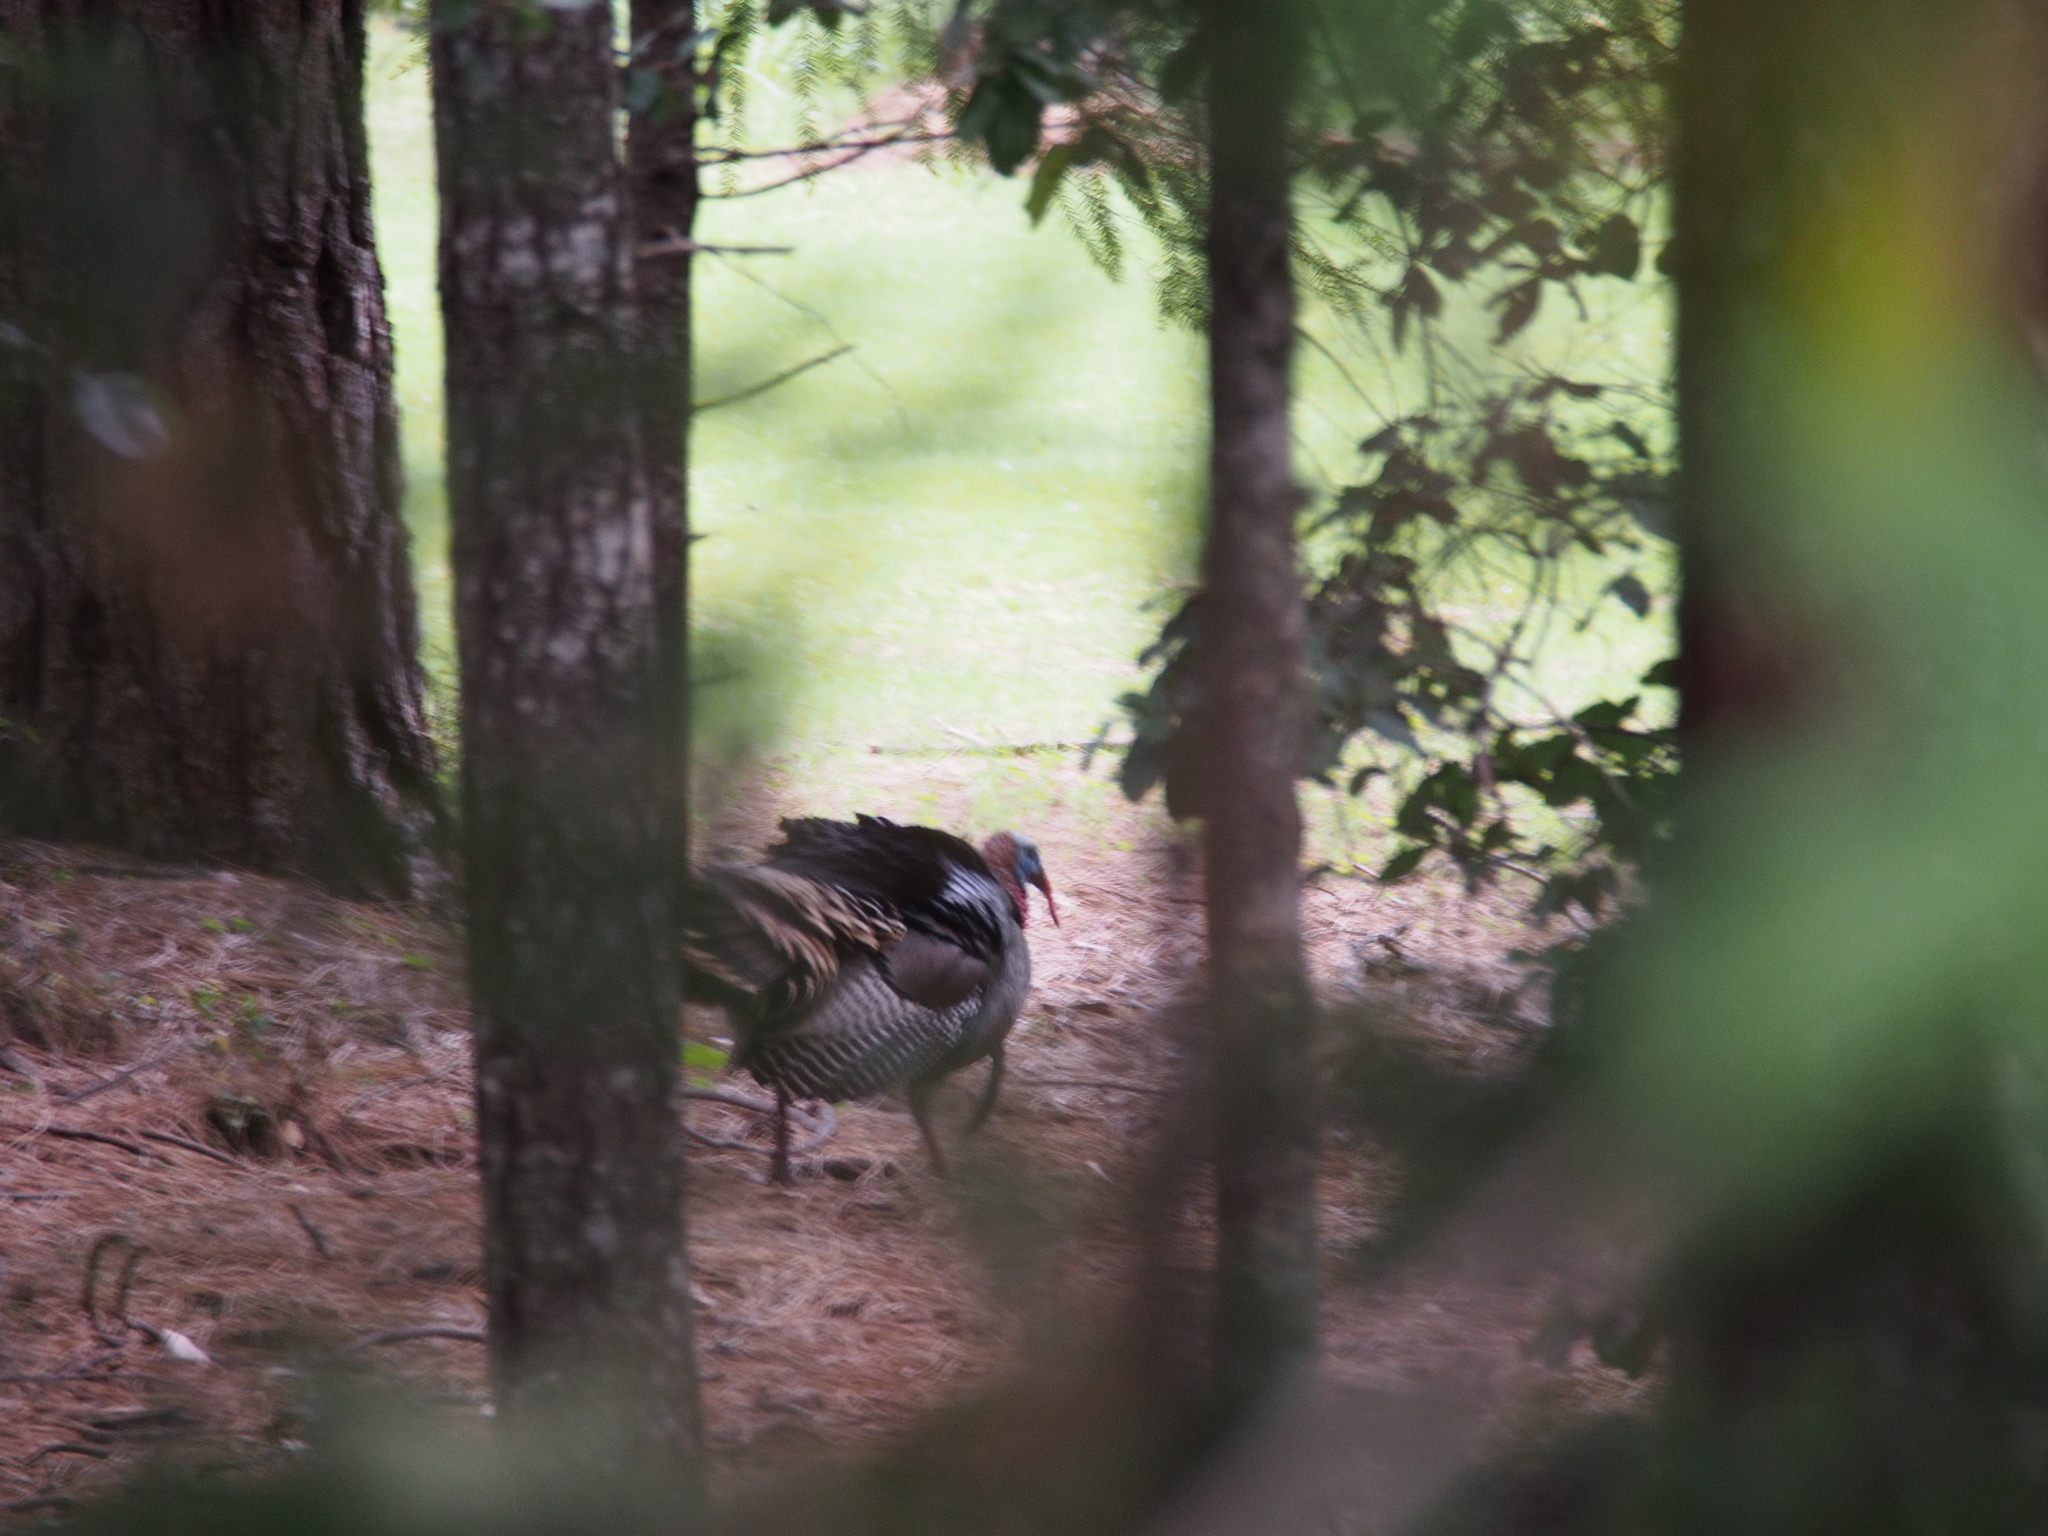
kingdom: Animalia
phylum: Chordata
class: Aves
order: Galliformes
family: Phasianidae
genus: Meleagris
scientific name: Meleagris gallopavo
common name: Wild turkey
